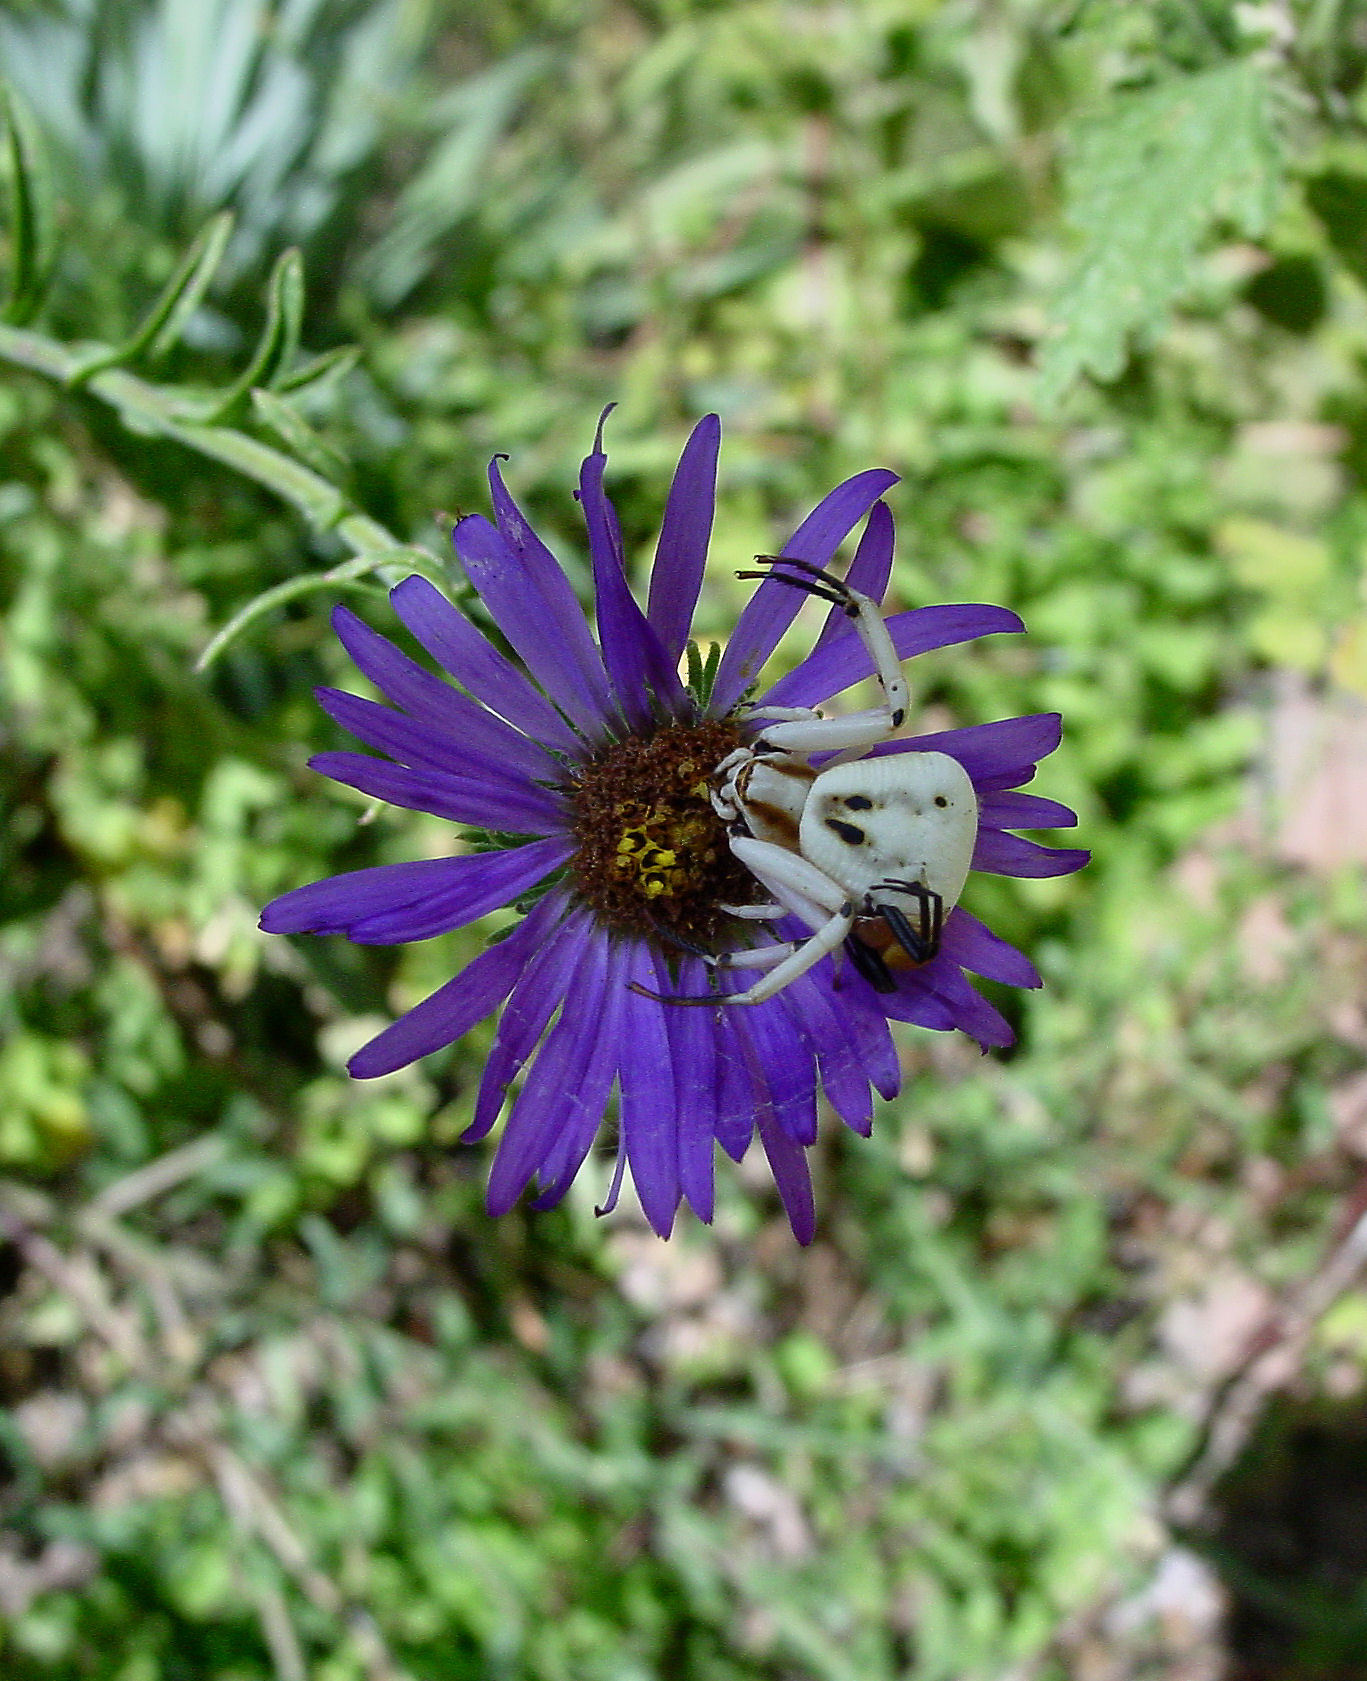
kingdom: Animalia
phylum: Arthropoda
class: Arachnida
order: Araneae
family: Thomisidae
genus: Misumenoides
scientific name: Misumenoides formosipes
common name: White-banded crab spider
